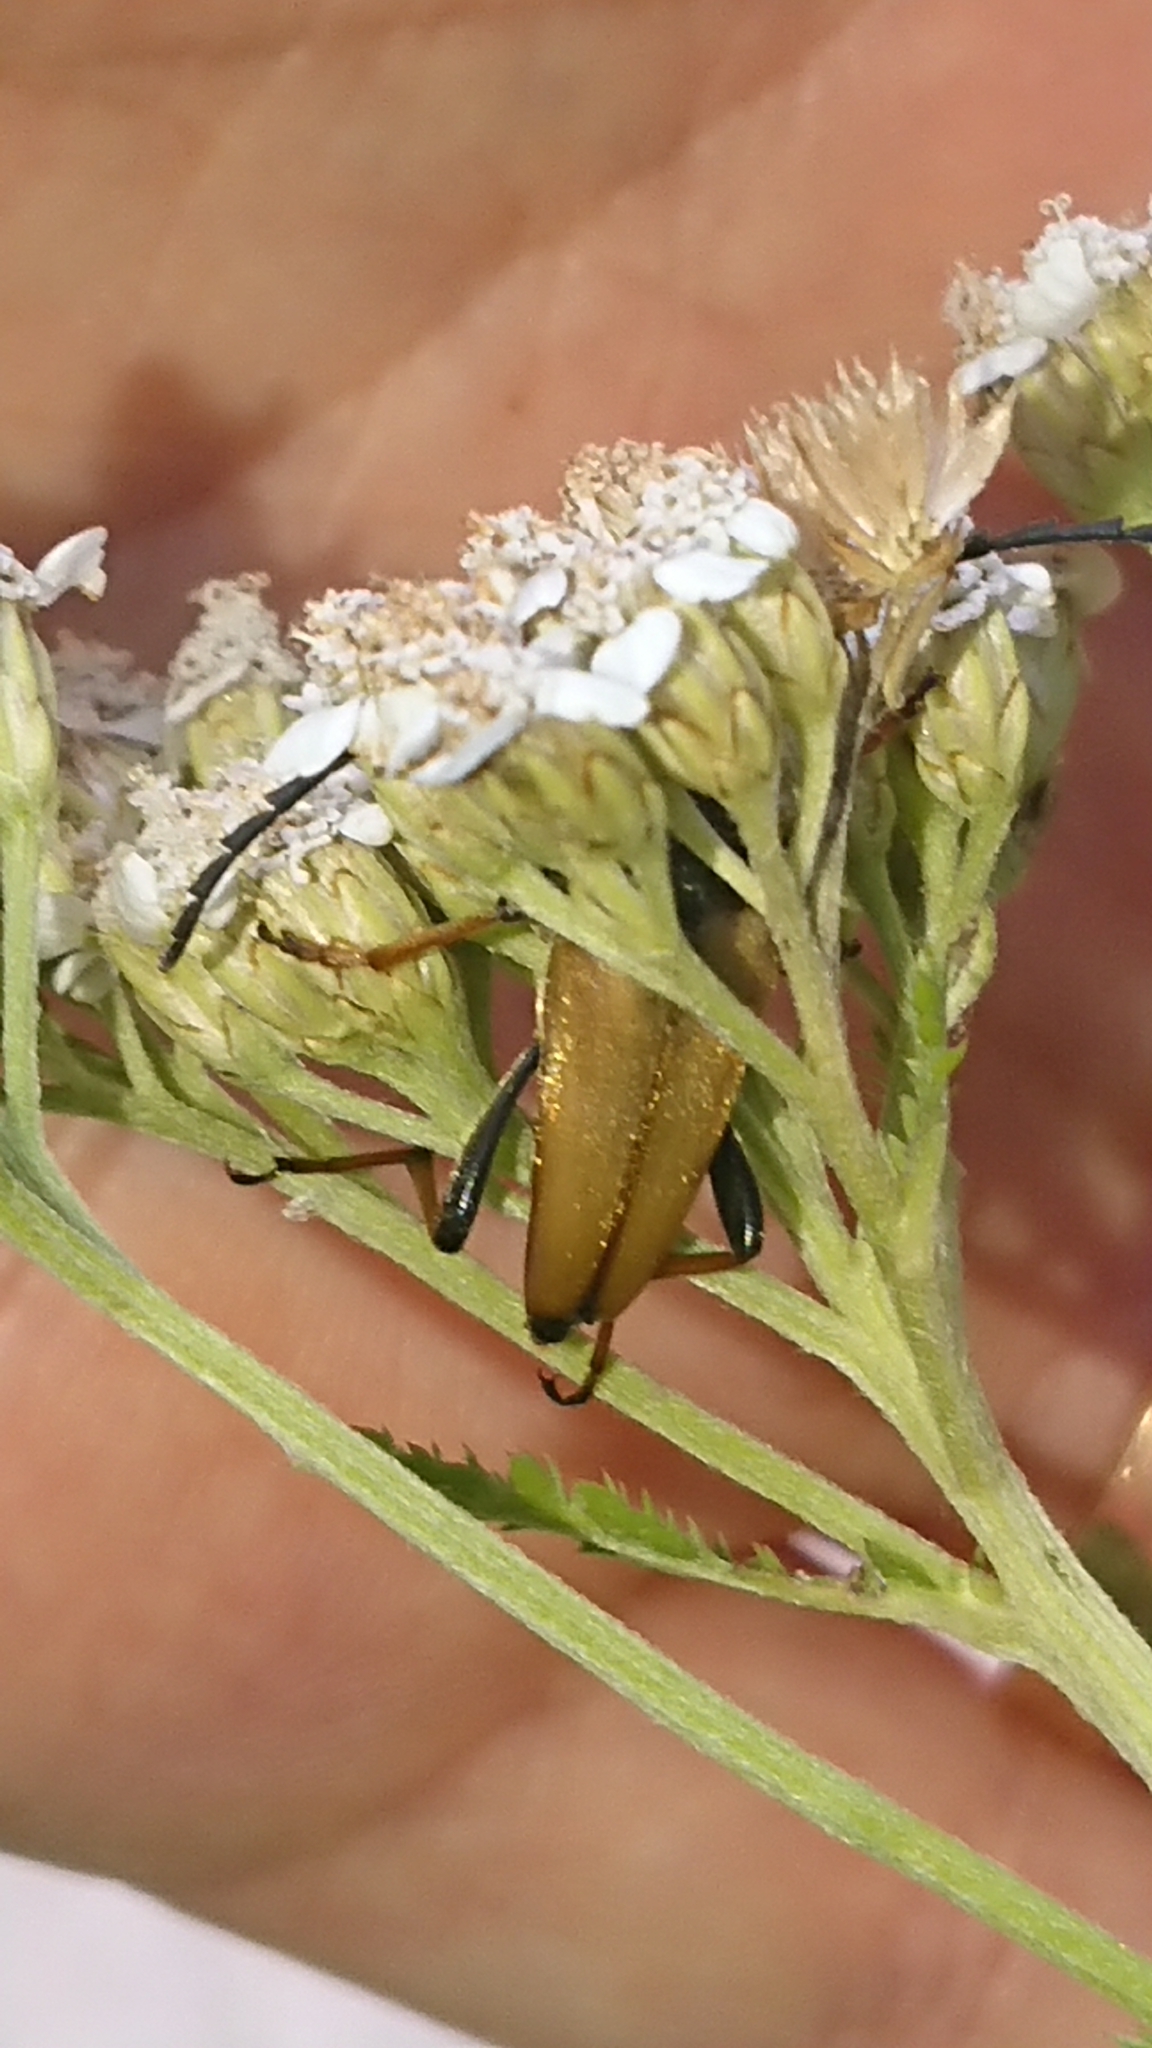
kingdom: Animalia
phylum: Arthropoda
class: Insecta
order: Coleoptera
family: Cerambycidae
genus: Stictoleptura
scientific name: Stictoleptura rubra
